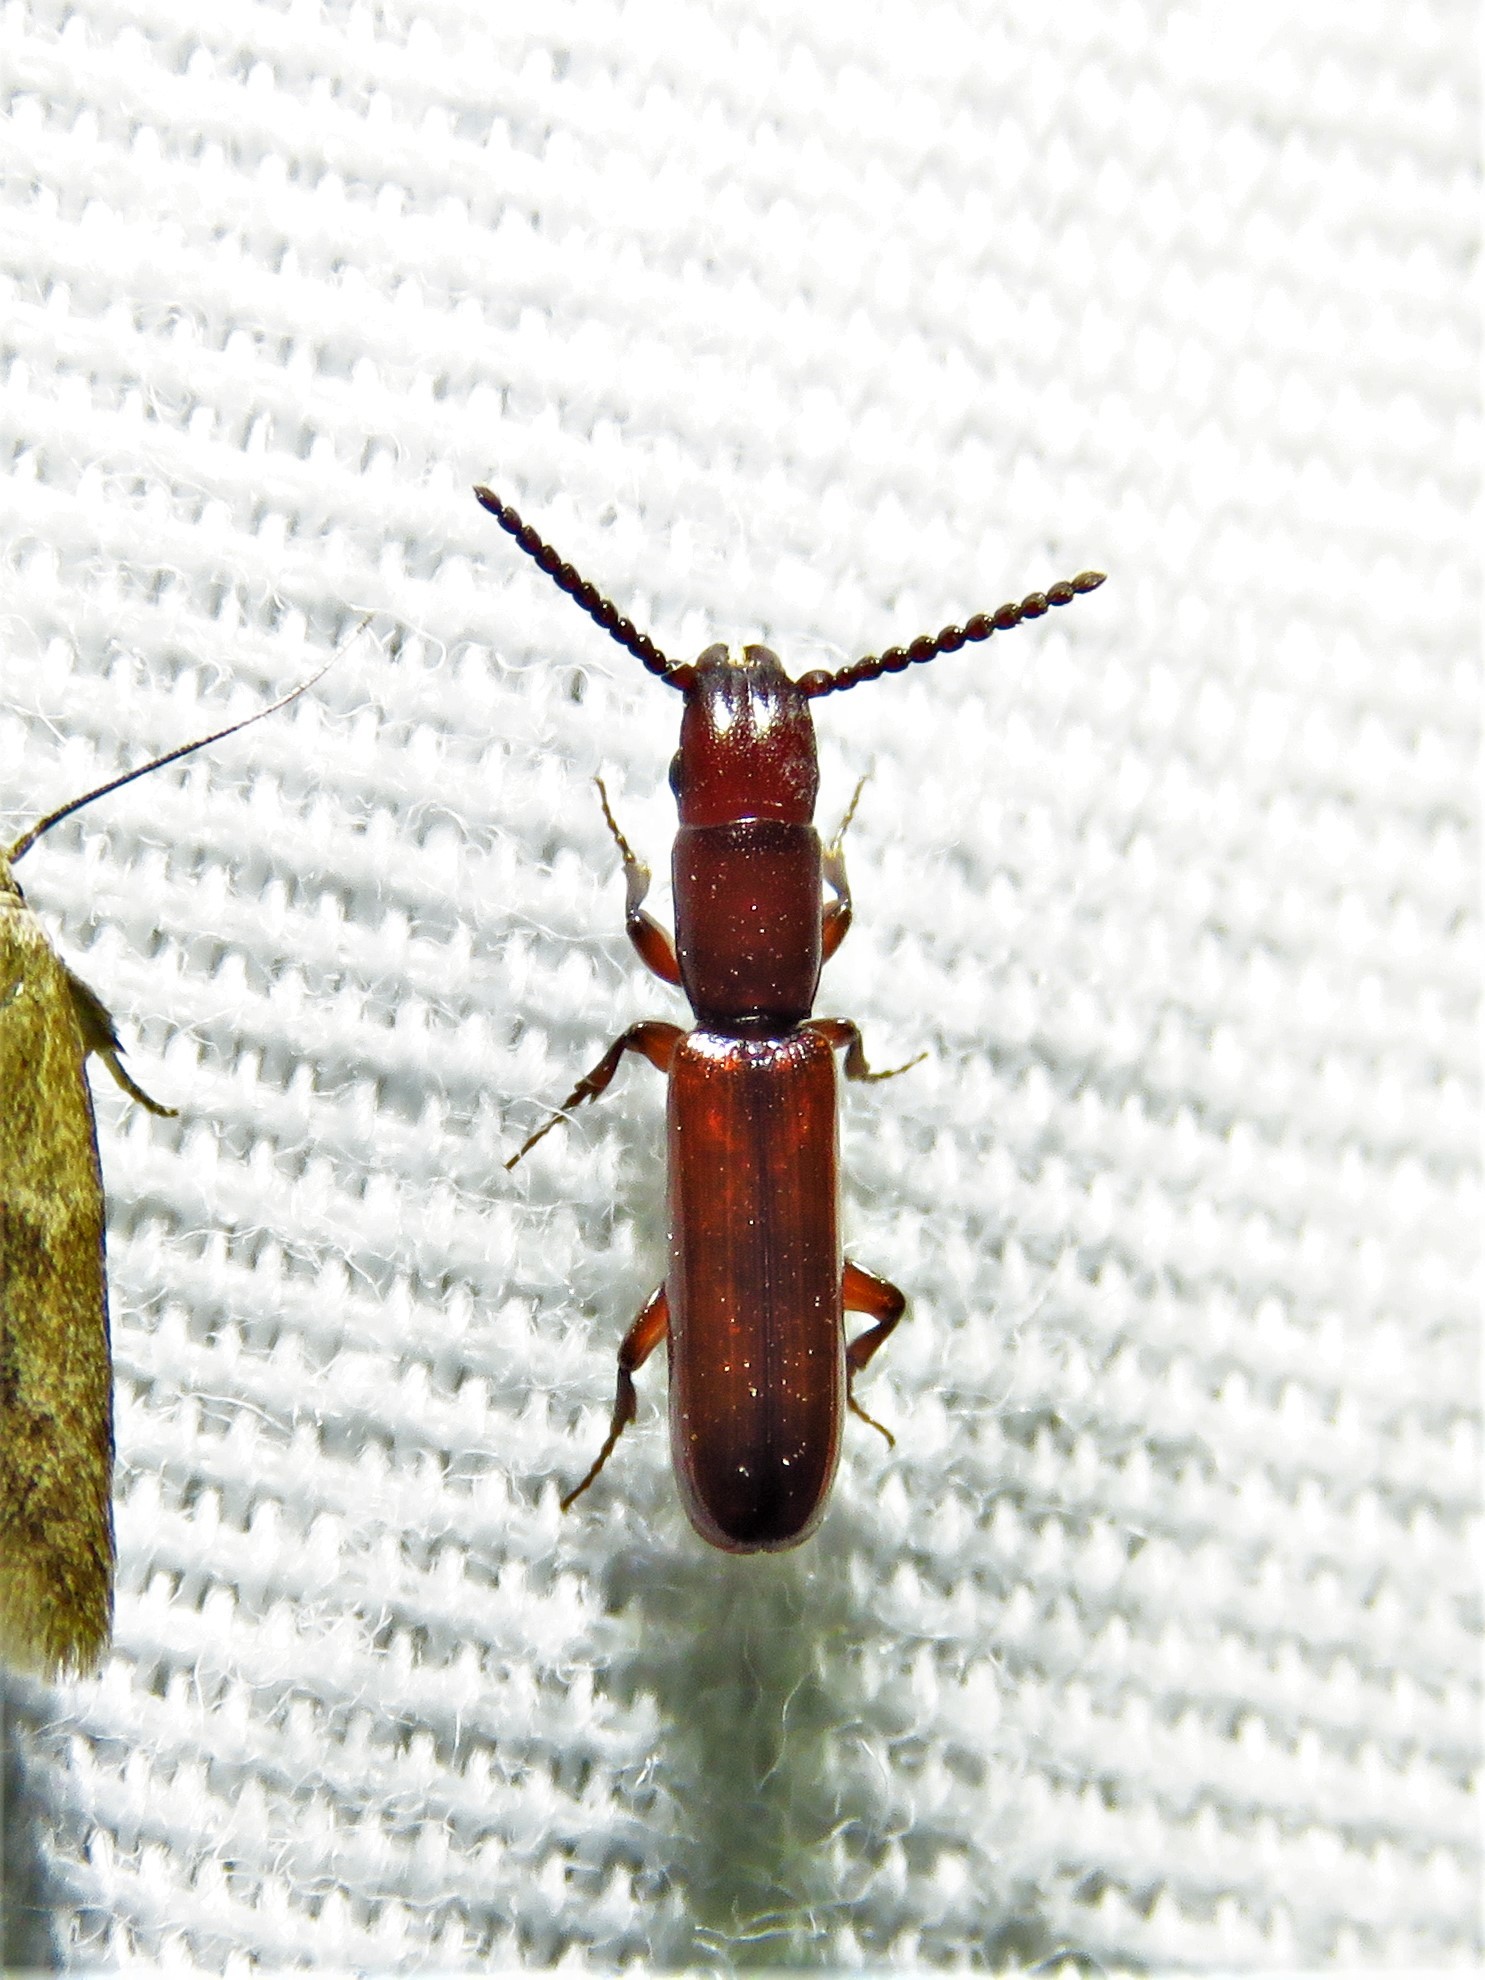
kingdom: Animalia
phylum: Arthropoda
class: Insecta
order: Coleoptera
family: Passandridae
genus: Taphroscelidia
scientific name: Taphroscelidia linearis
